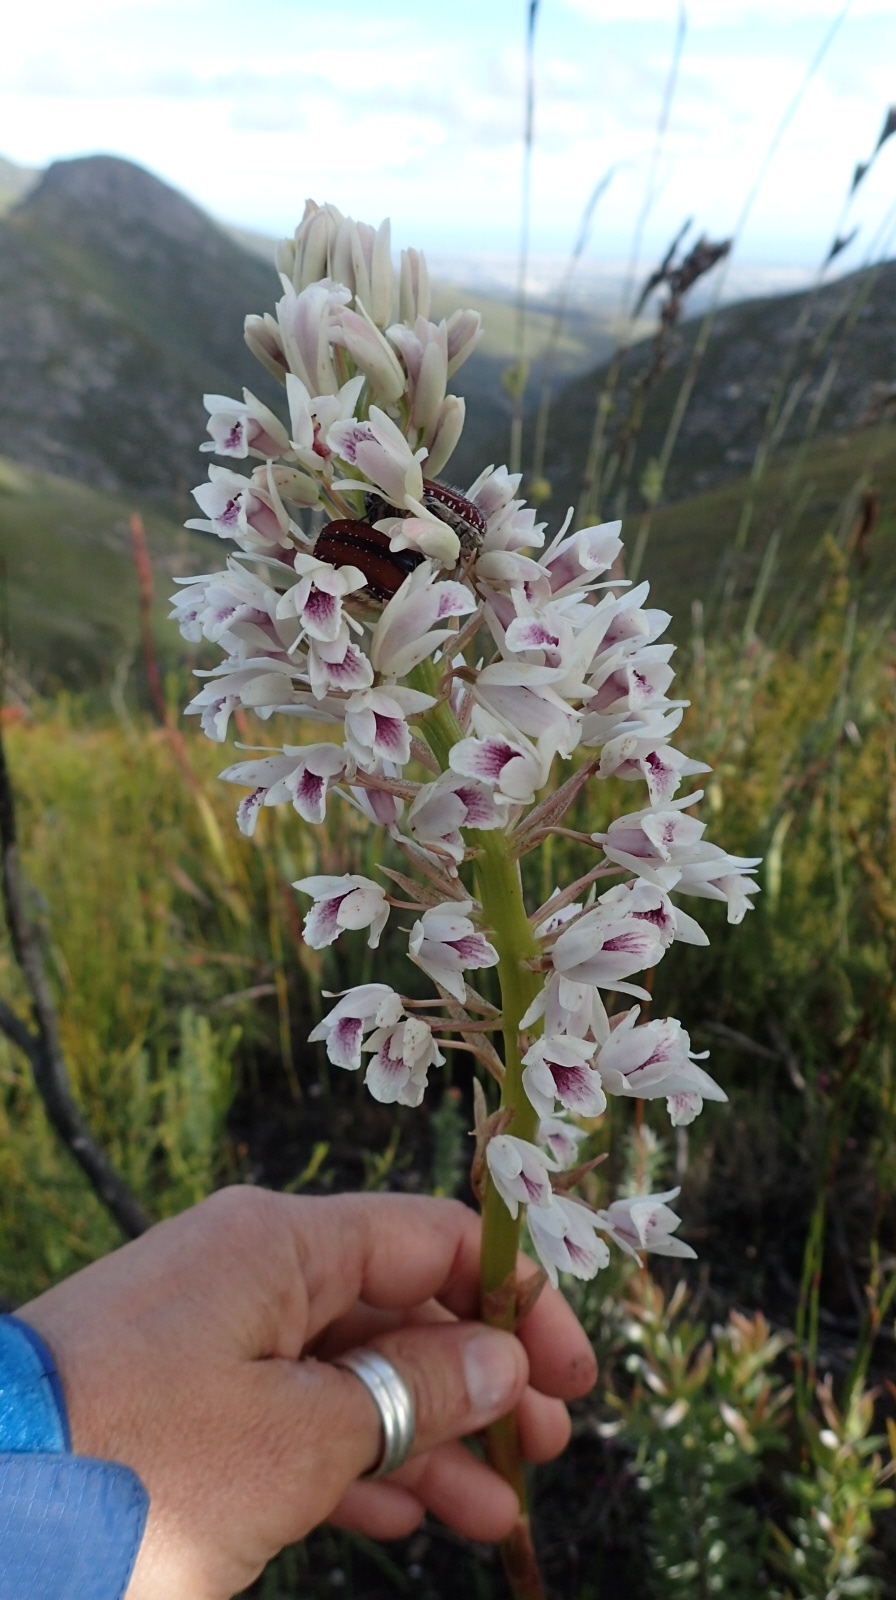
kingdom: Plantae
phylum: Tracheophyta
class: Liliopsida
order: Asparagales
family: Orchidaceae
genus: Eulophia
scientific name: Eulophia barbata
